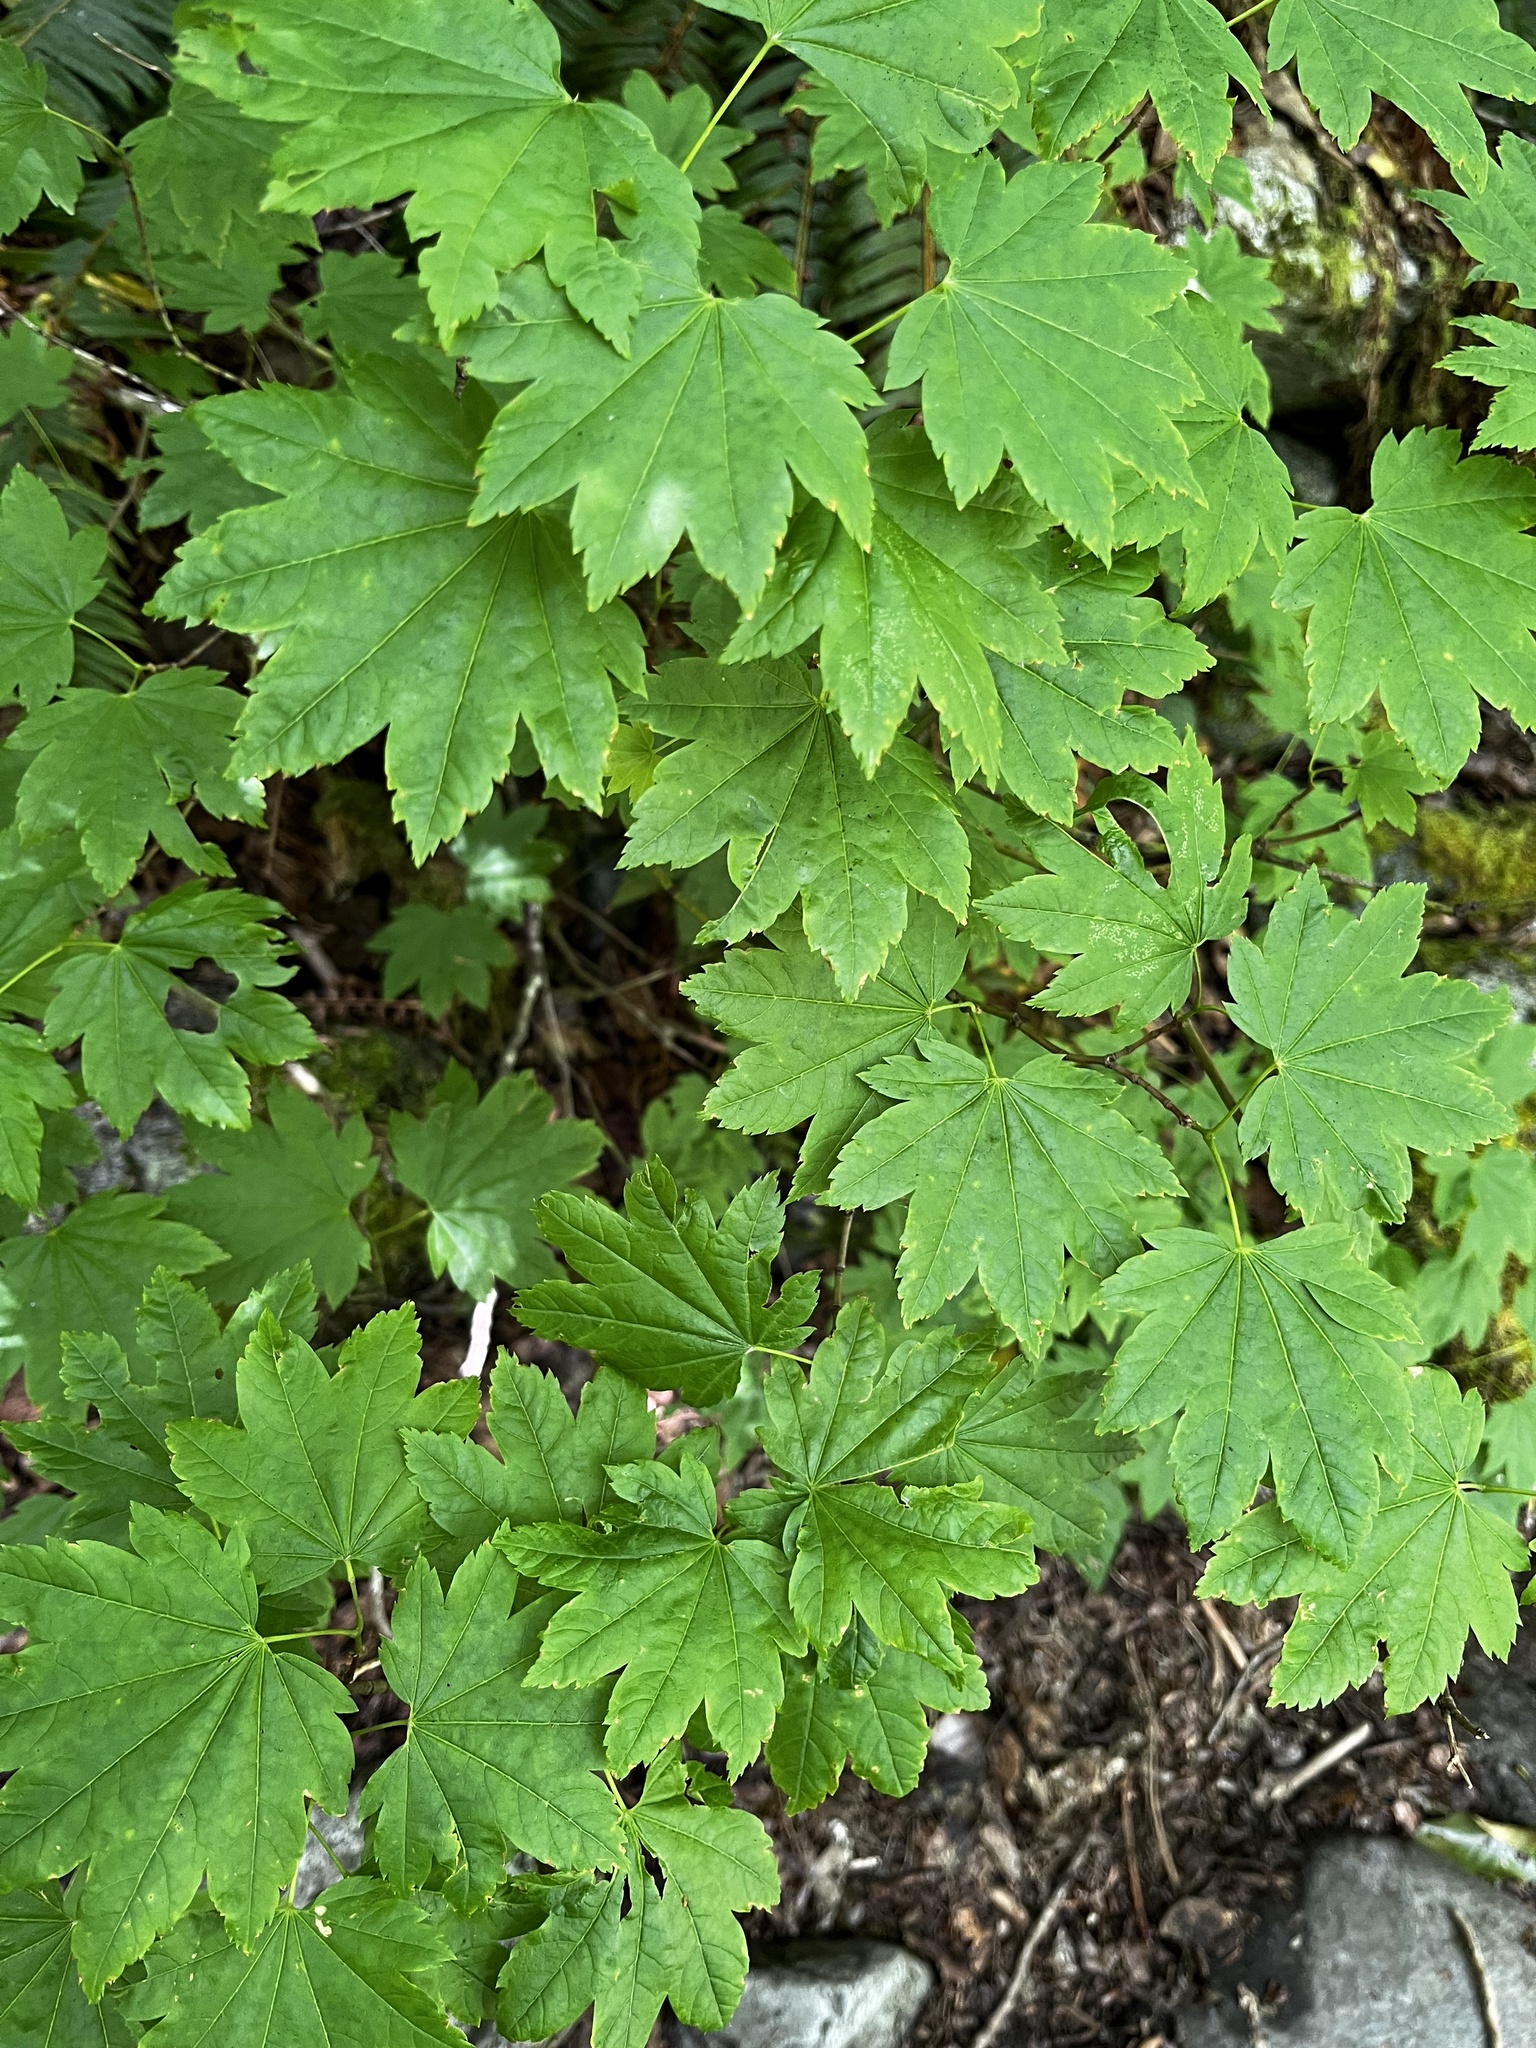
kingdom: Plantae
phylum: Tracheophyta
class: Magnoliopsida
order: Sapindales
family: Sapindaceae
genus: Acer
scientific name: Acer circinatum
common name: Vine maple
